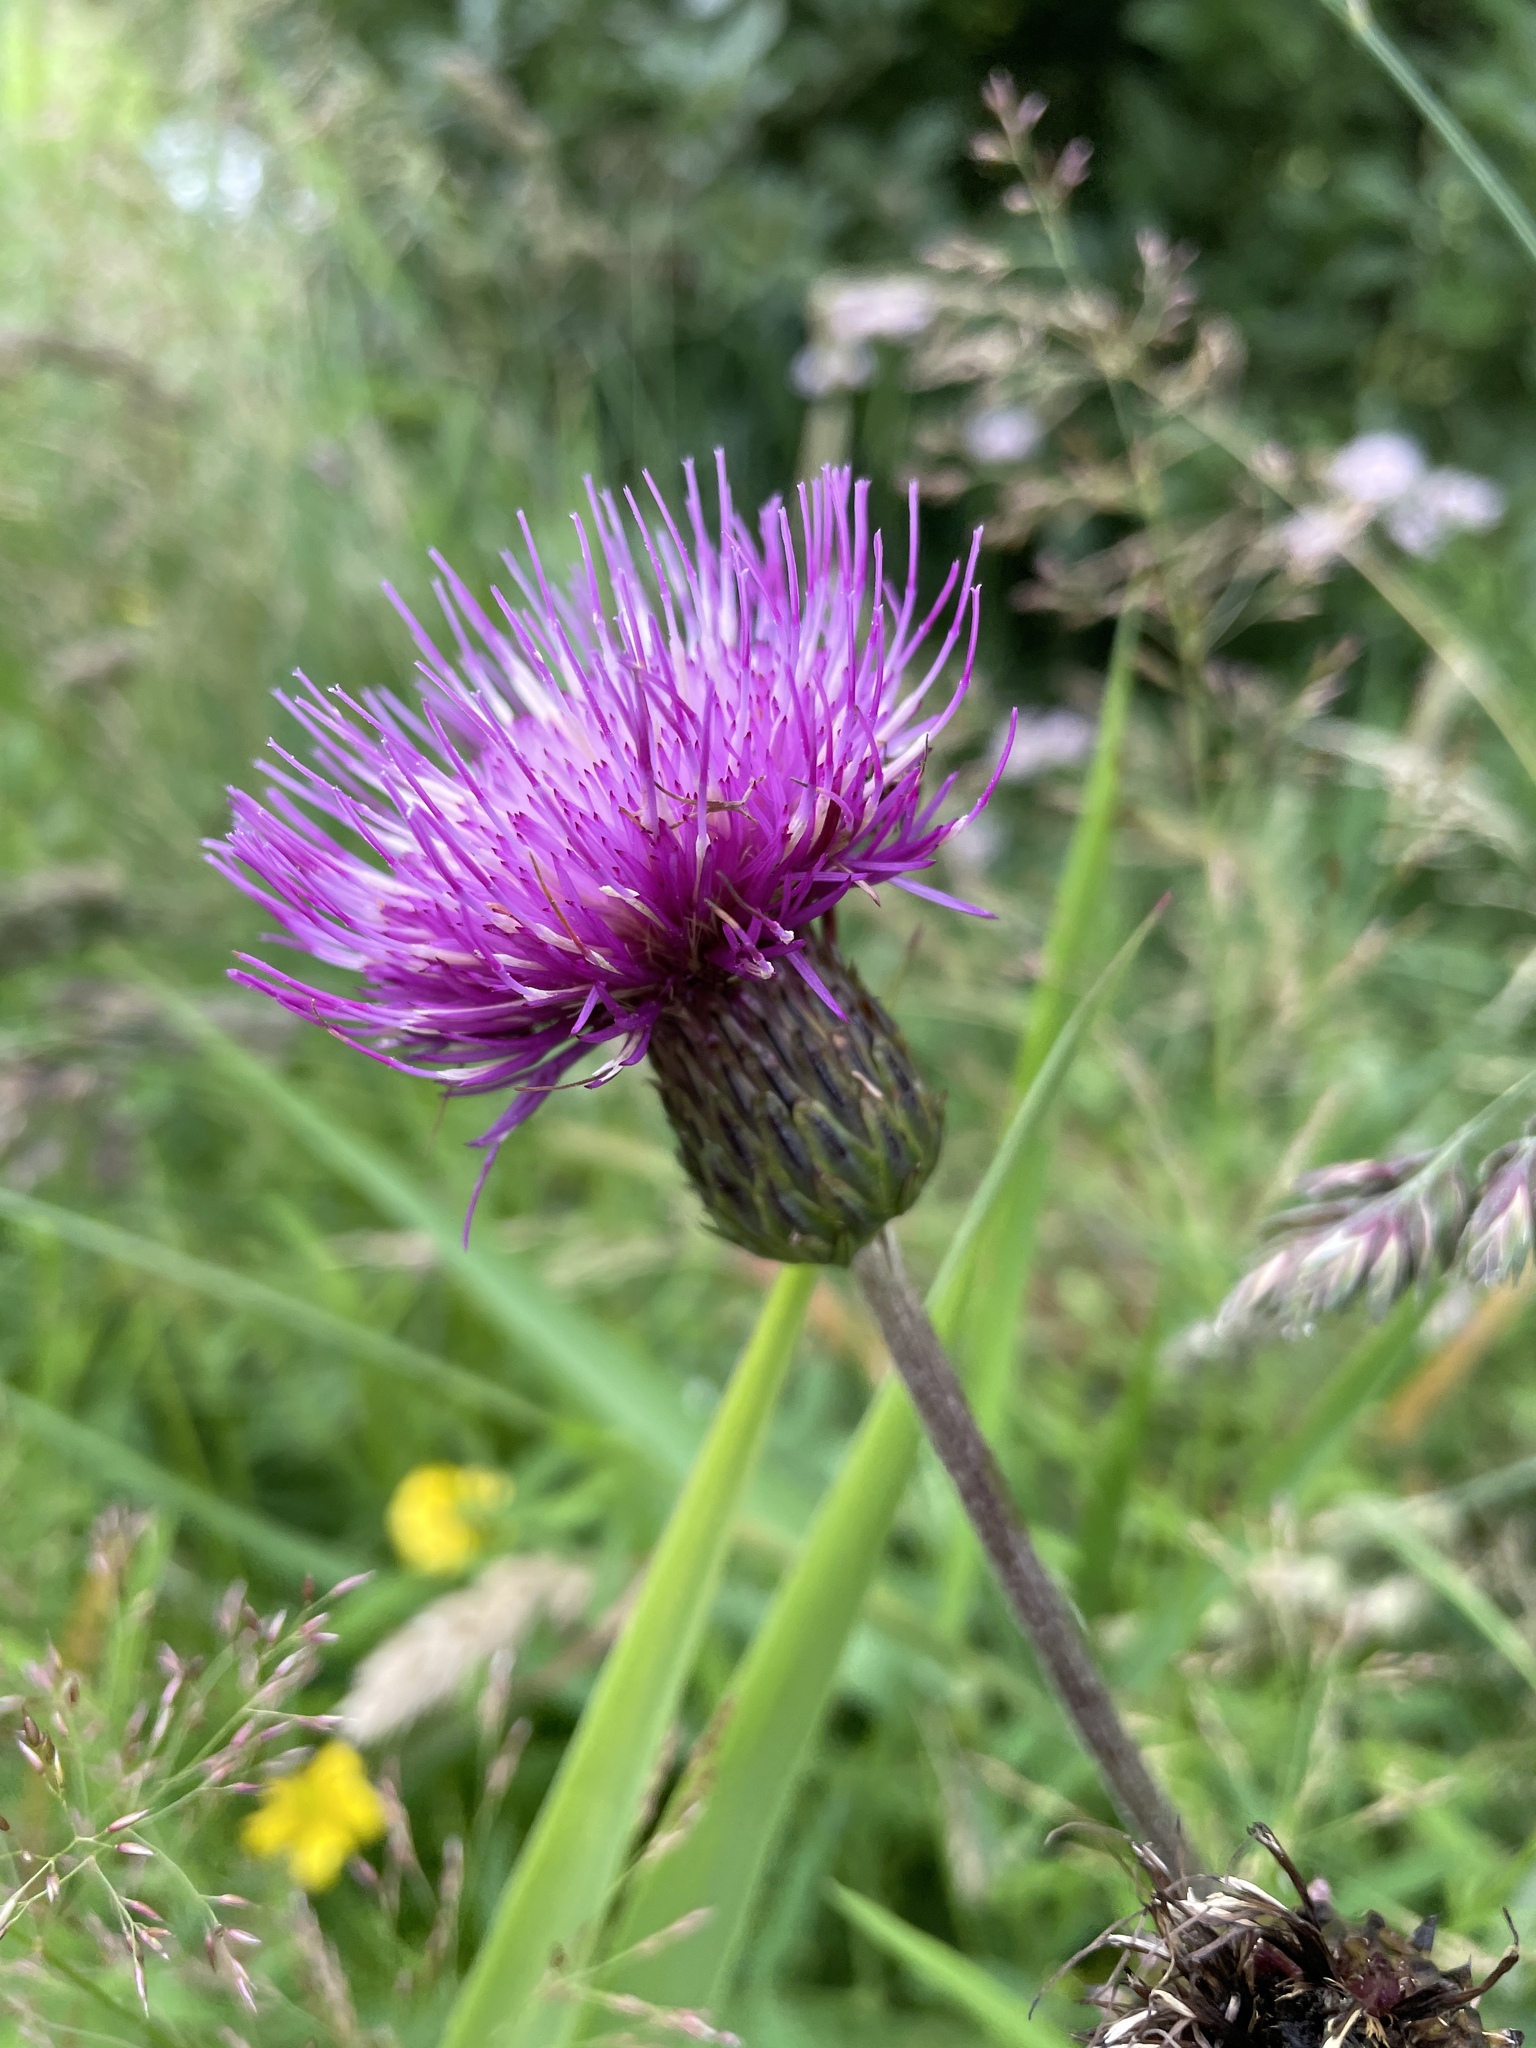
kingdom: Plantae
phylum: Tracheophyta
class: Magnoliopsida
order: Asterales
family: Asteraceae
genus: Cirsium
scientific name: Cirsium heterophyllum
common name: Melancholy thistle
